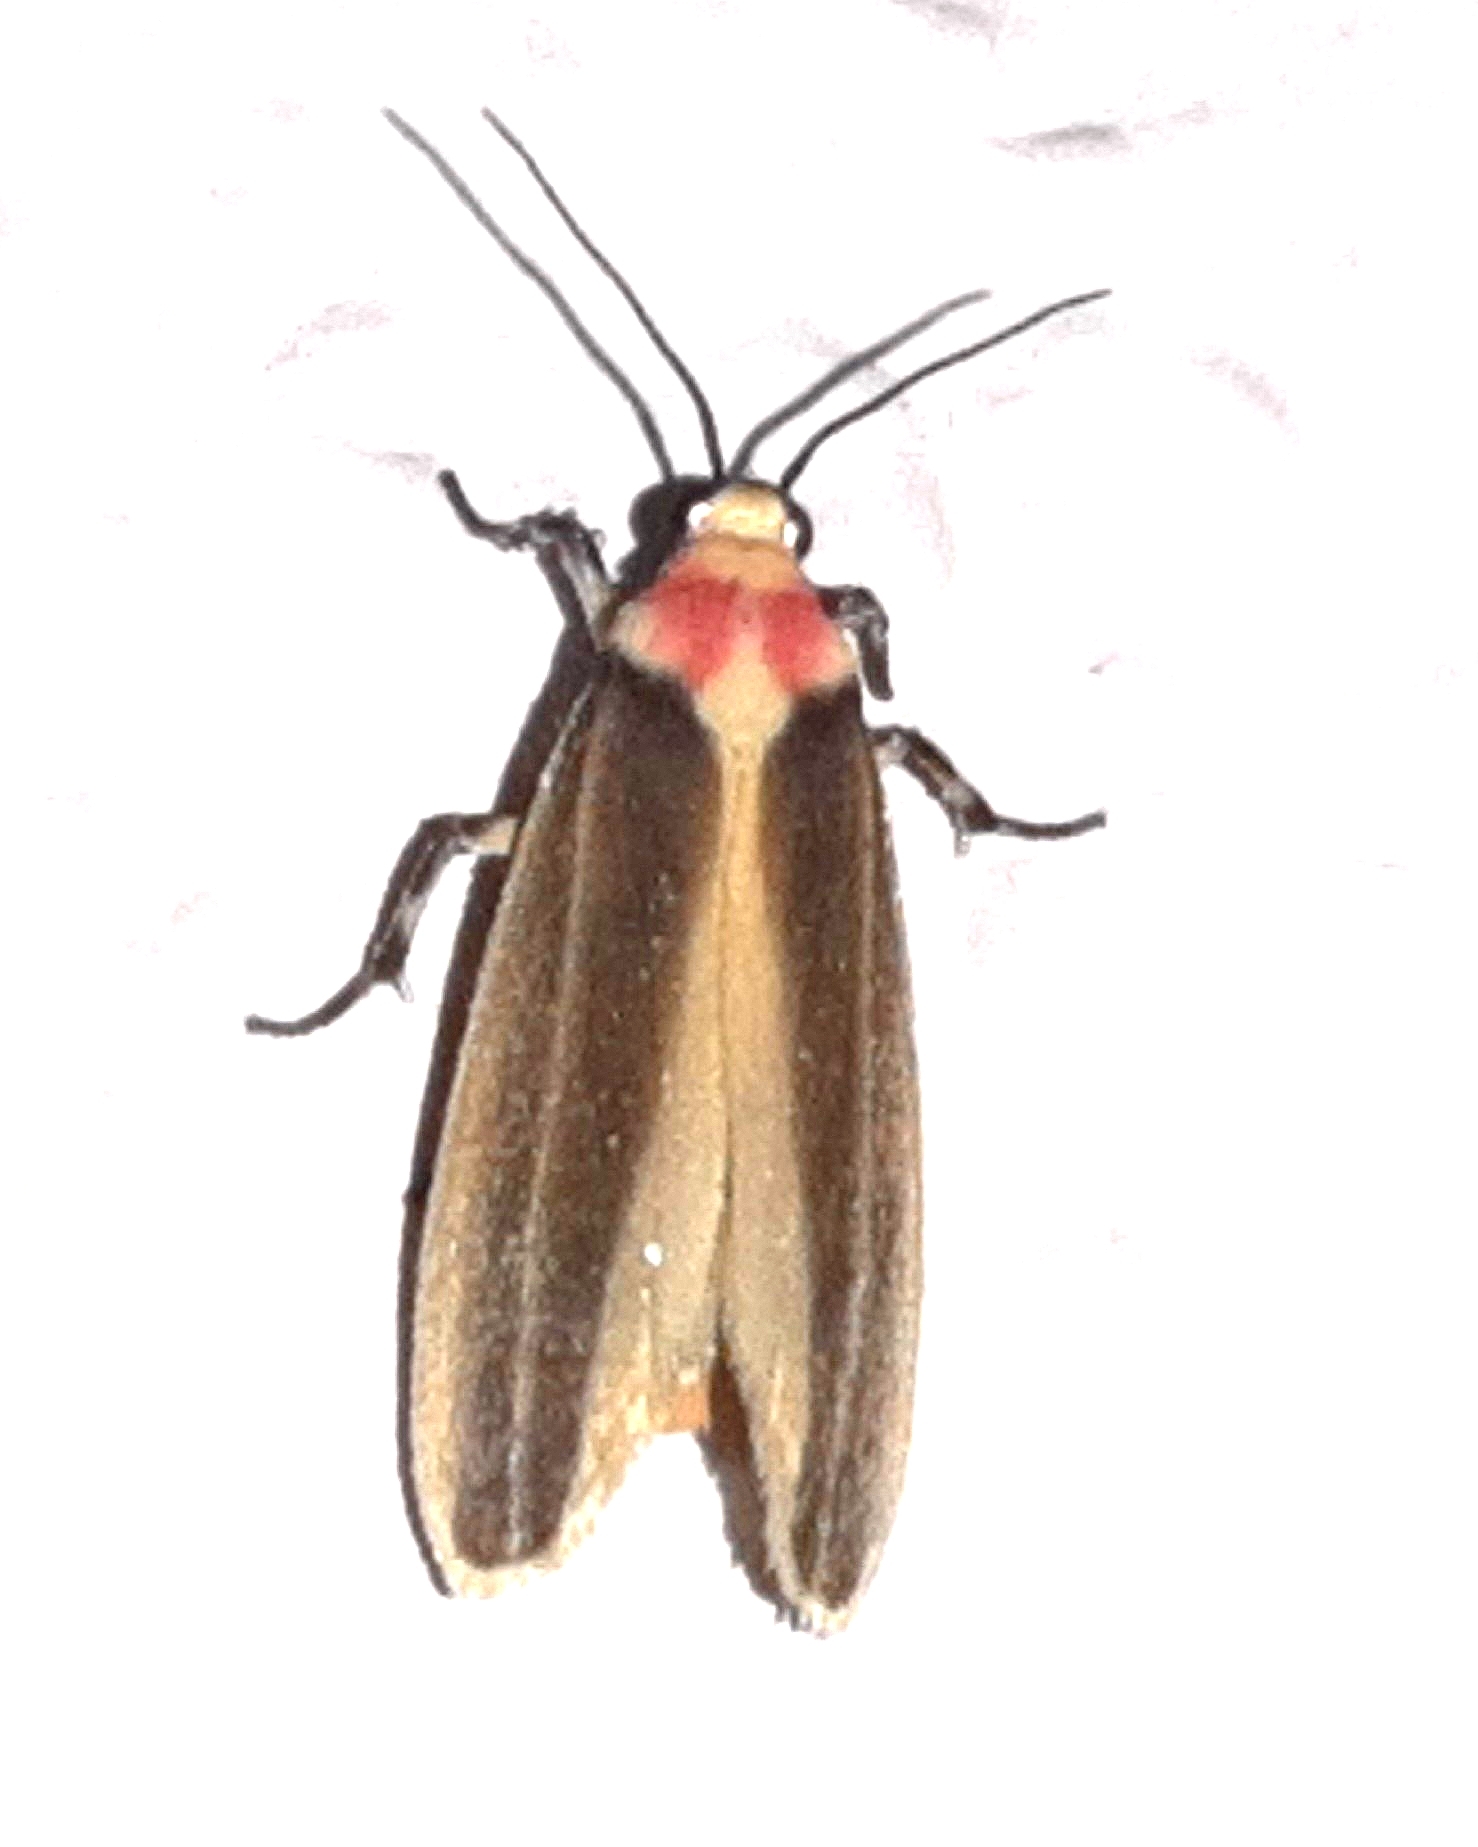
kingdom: Animalia
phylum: Arthropoda
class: Insecta
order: Lepidoptera
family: Erebidae
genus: Rhabdatomis
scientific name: Rhabdatomis laudamia
